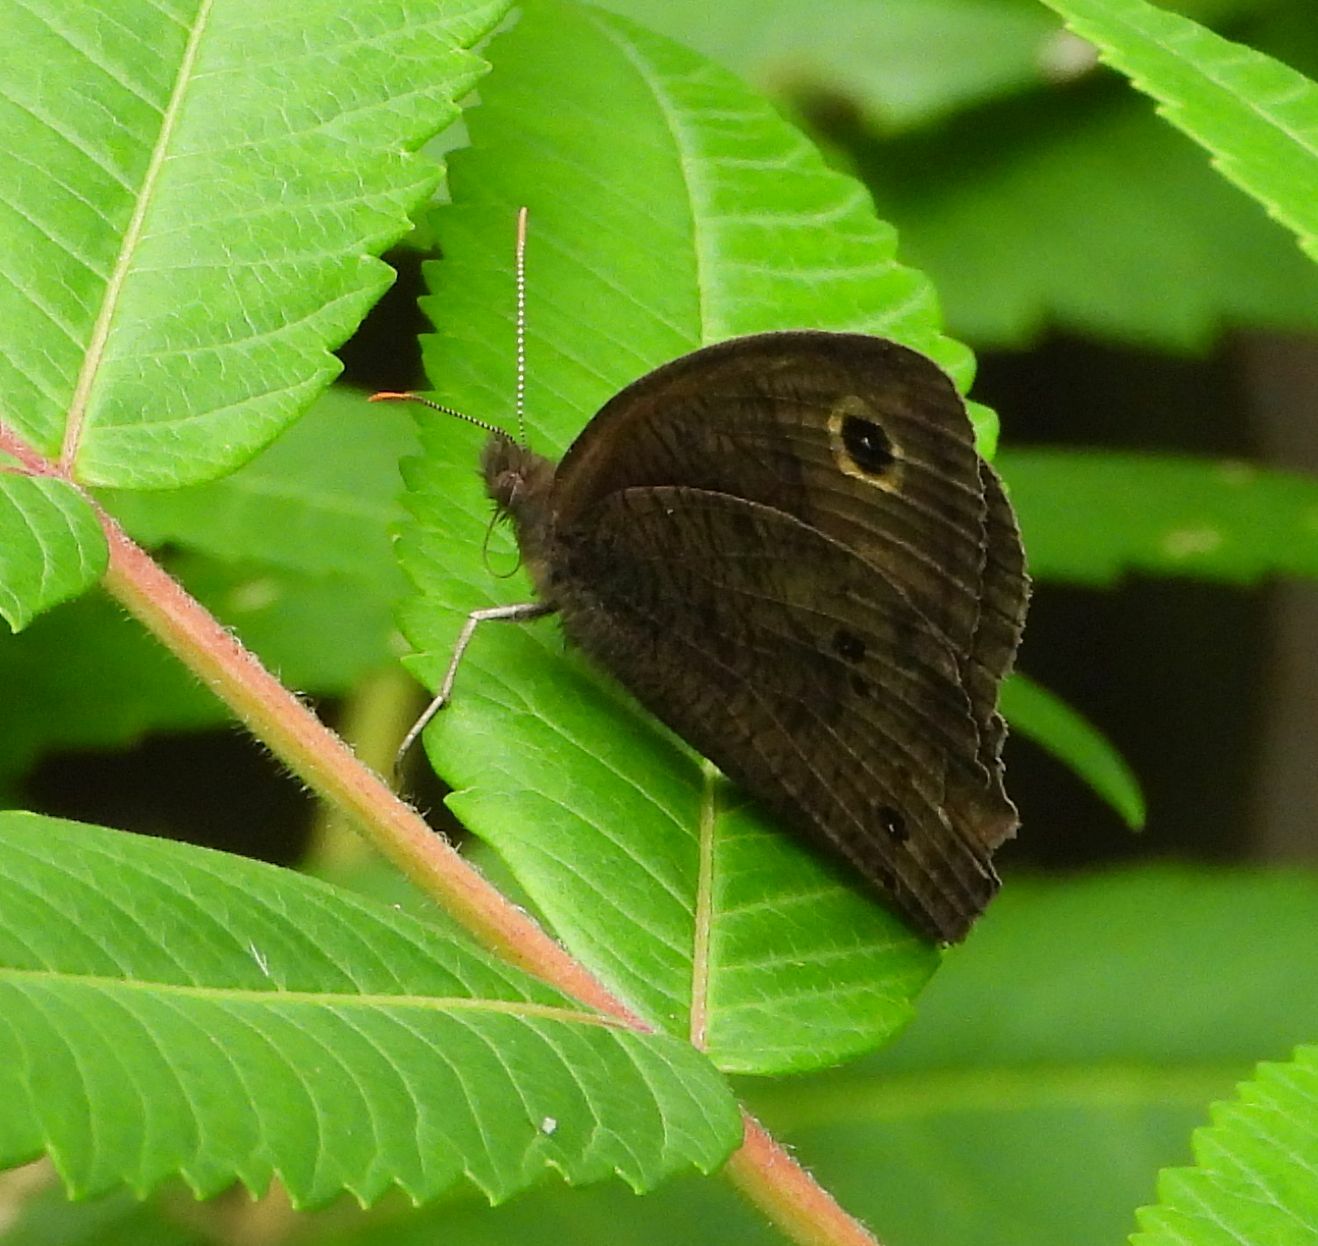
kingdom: Animalia
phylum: Arthropoda
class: Insecta
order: Lepidoptera
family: Nymphalidae
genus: Cercyonis
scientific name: Cercyonis pegala
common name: Common wood-nymph
